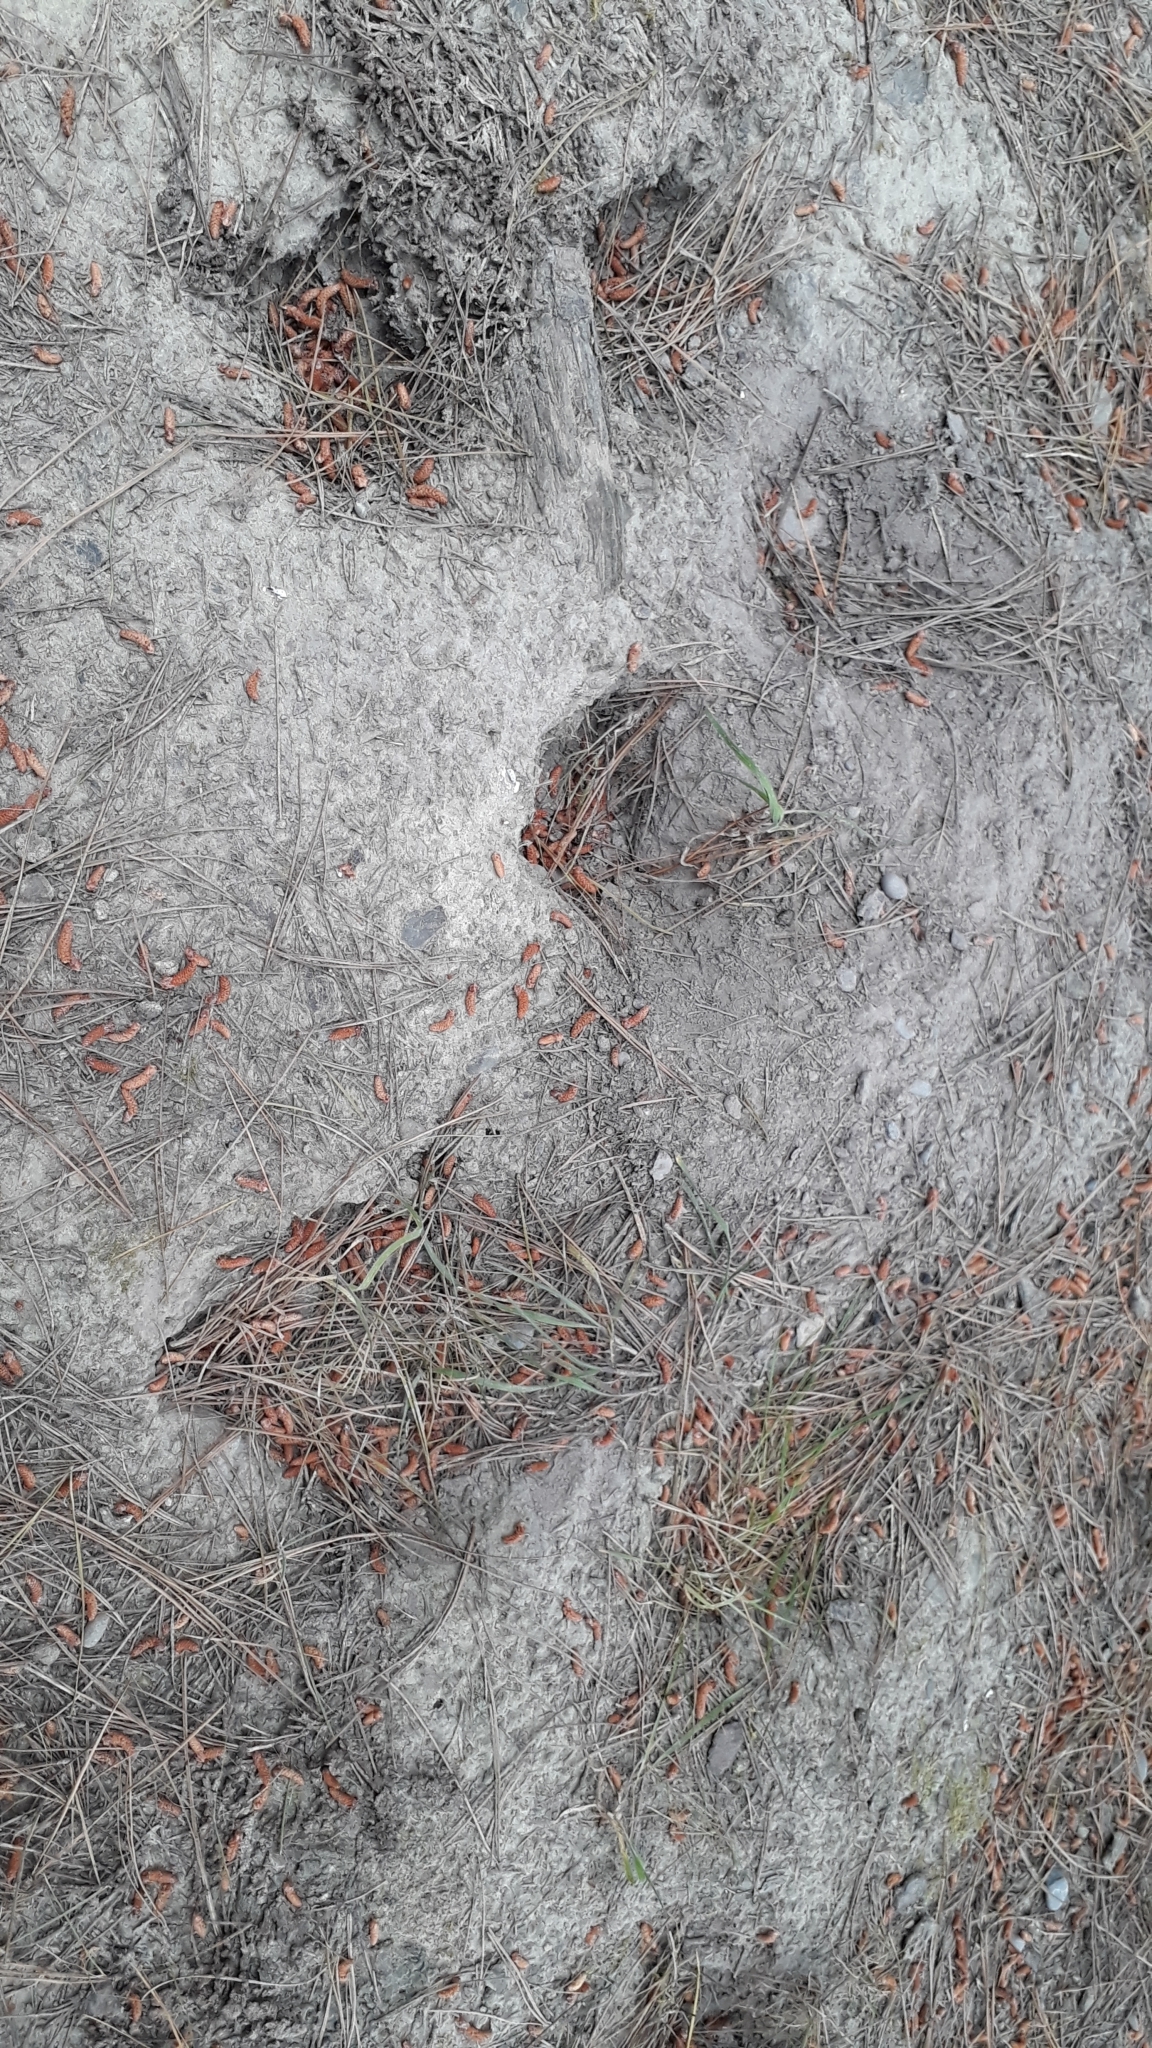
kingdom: Animalia
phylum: Chordata
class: Mammalia
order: Lagomorpha
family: Leporidae
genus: Oryctolagus
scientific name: Oryctolagus cuniculus
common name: European rabbit
